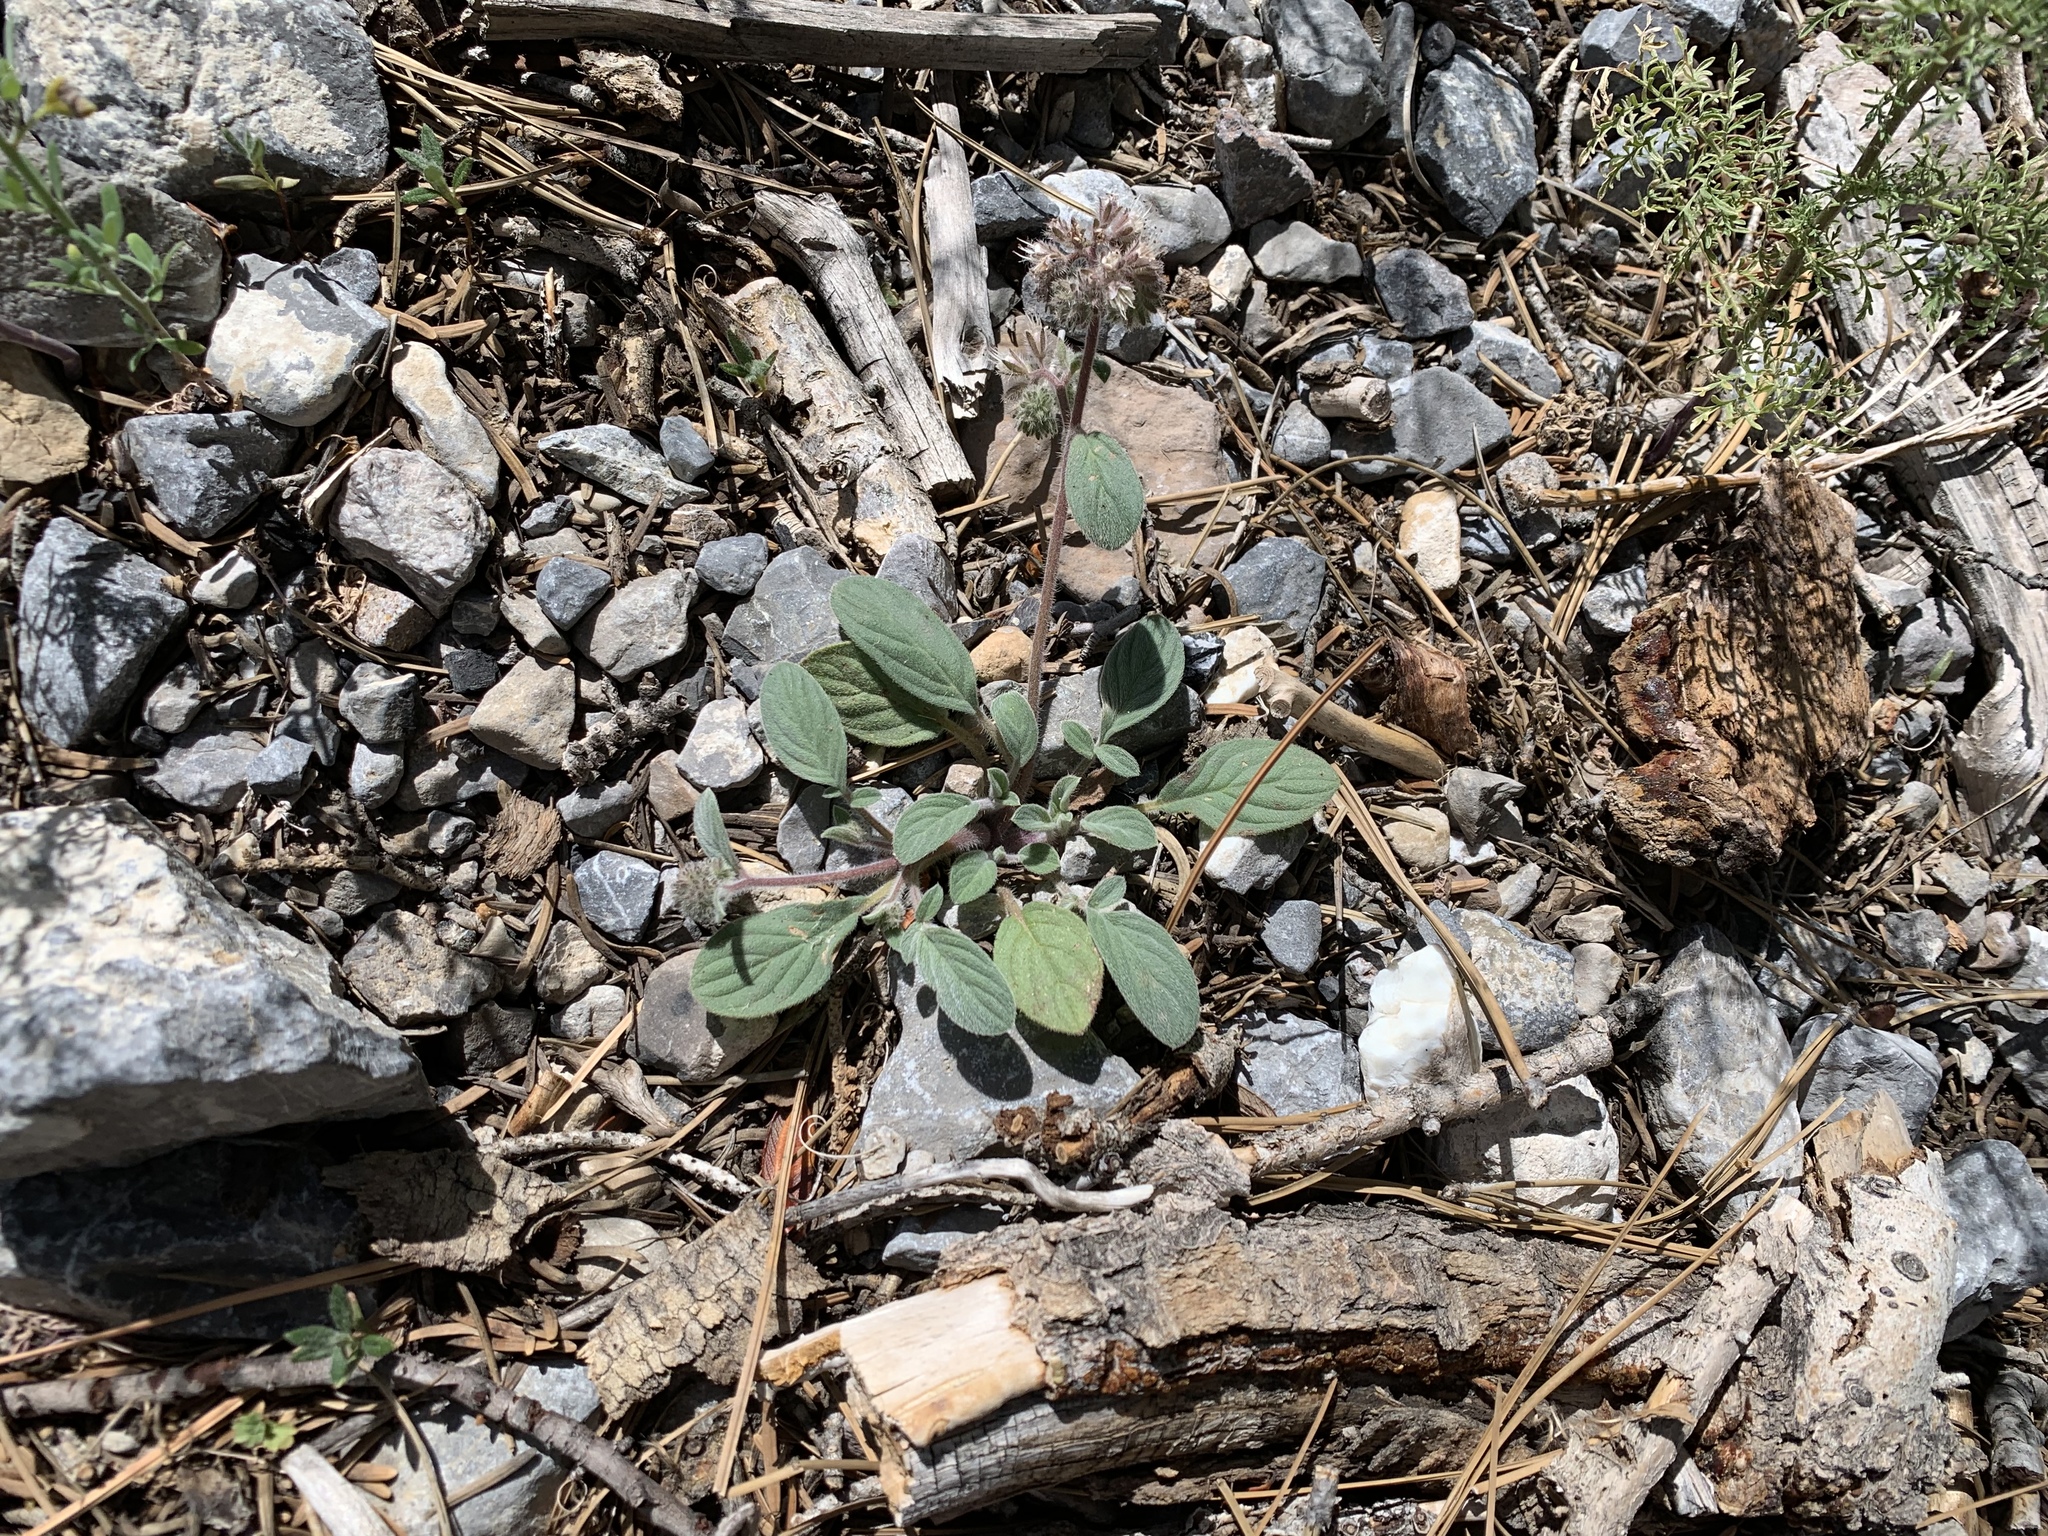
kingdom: Plantae
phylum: Tracheophyta
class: Magnoliopsida
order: Boraginales
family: Hydrophyllaceae
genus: Phacelia
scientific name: Phacelia hastata
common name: Silver-leaved phacelia
